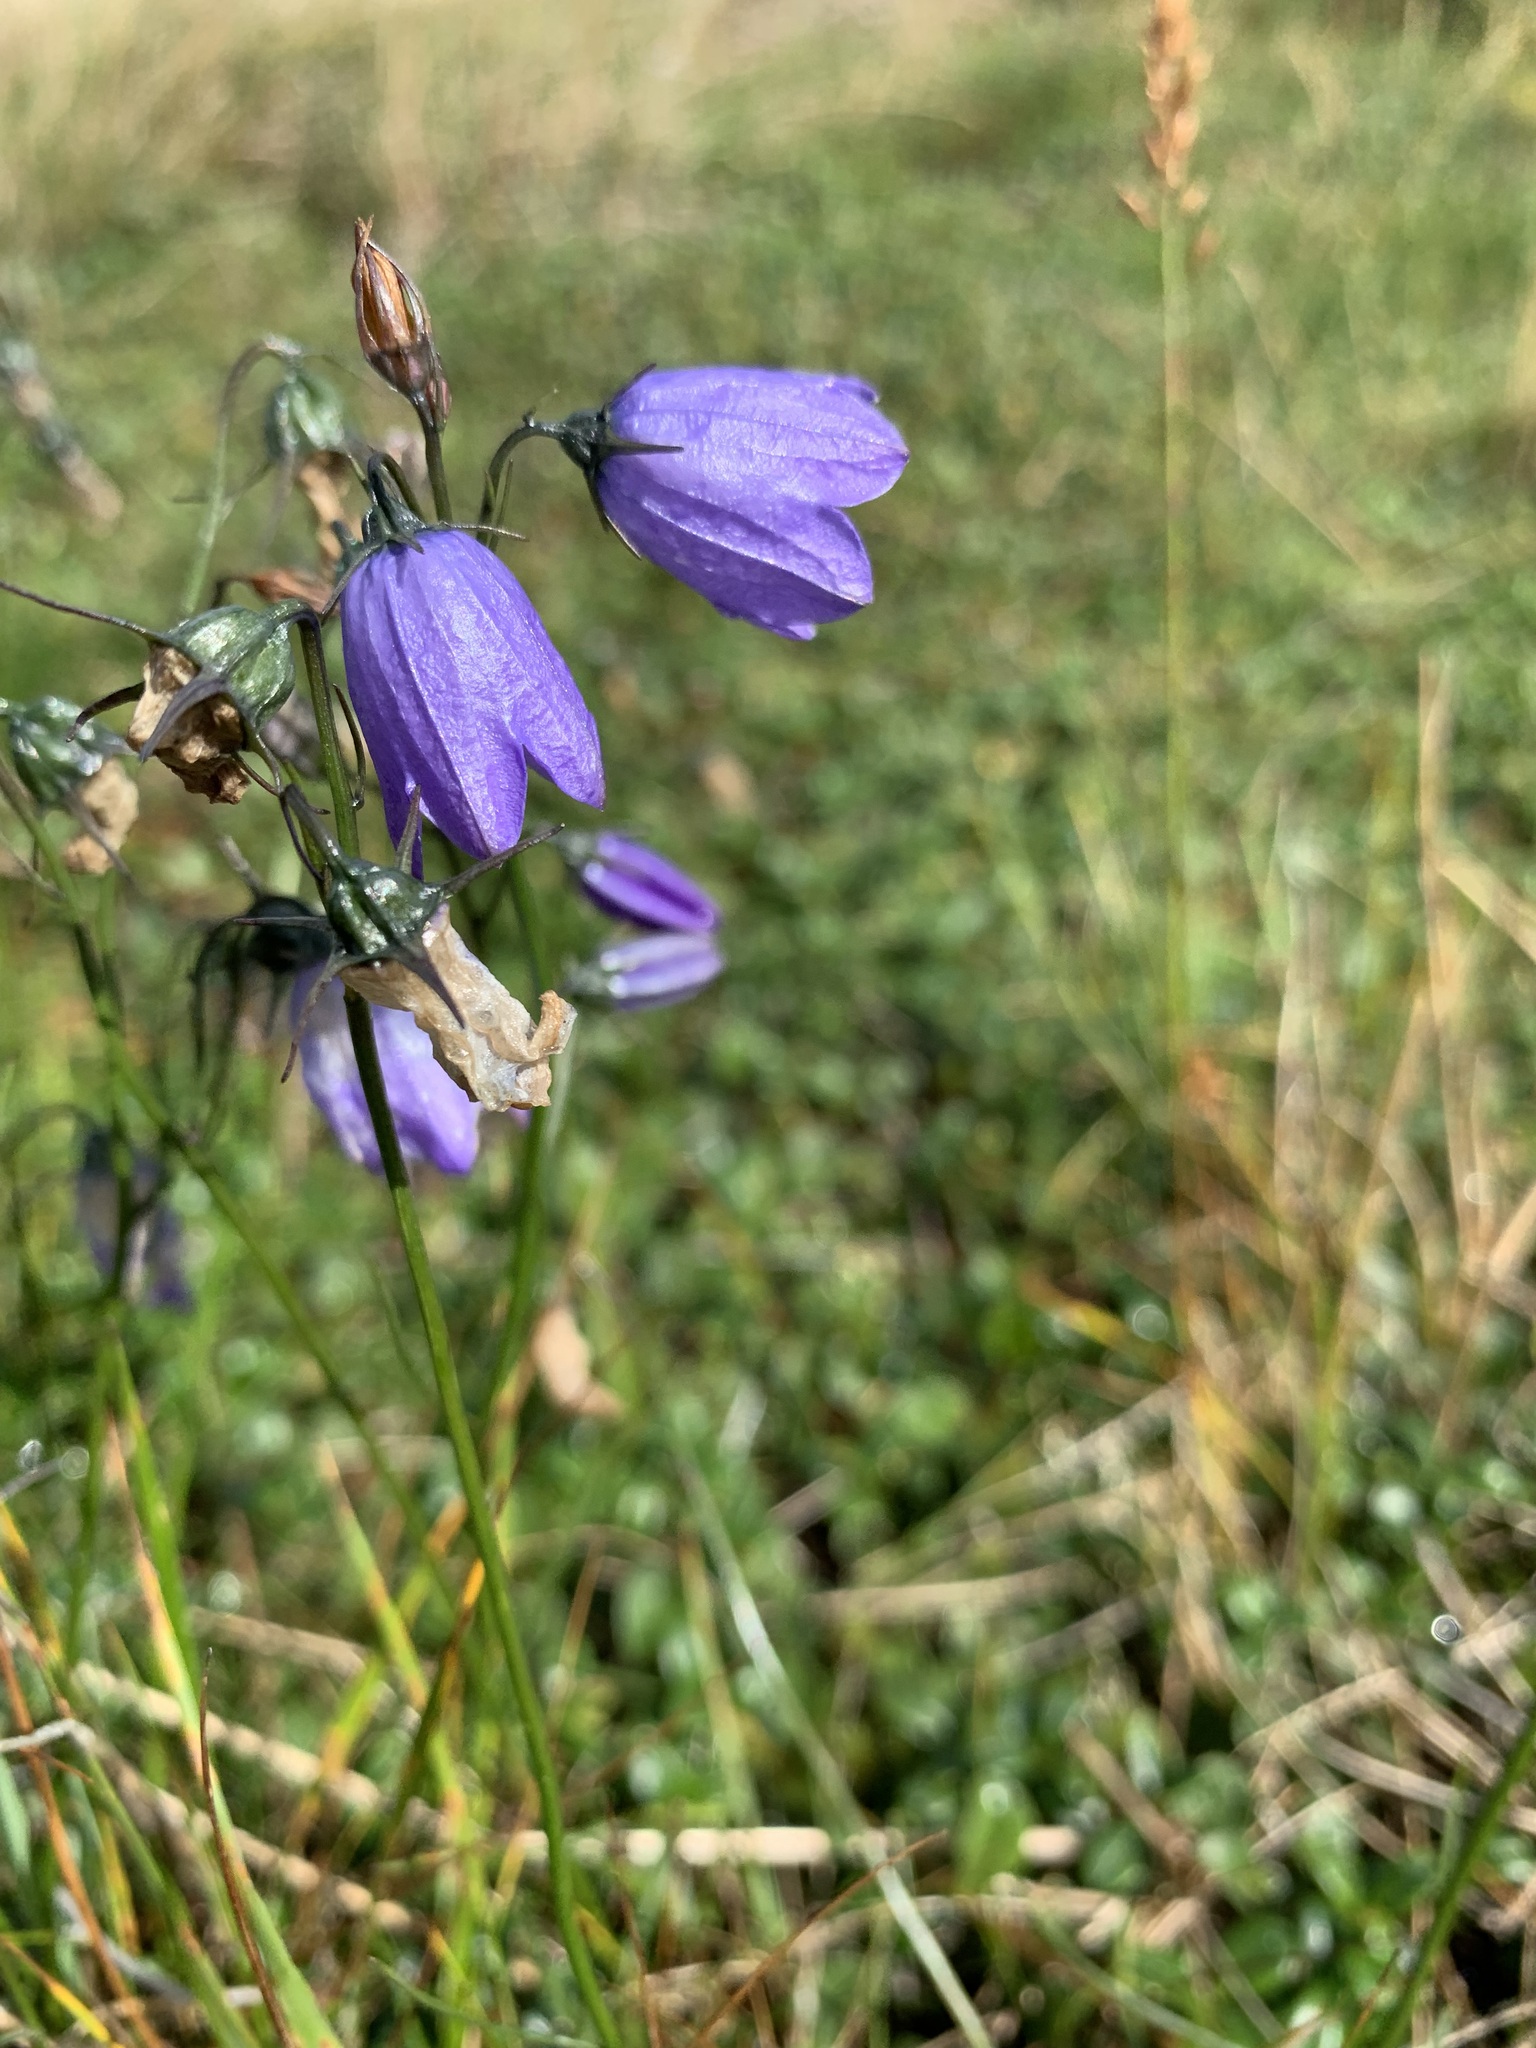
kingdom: Plantae
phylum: Tracheophyta
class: Magnoliopsida
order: Asterales
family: Campanulaceae
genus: Campanula
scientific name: Campanula rotundifolia
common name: Harebell
